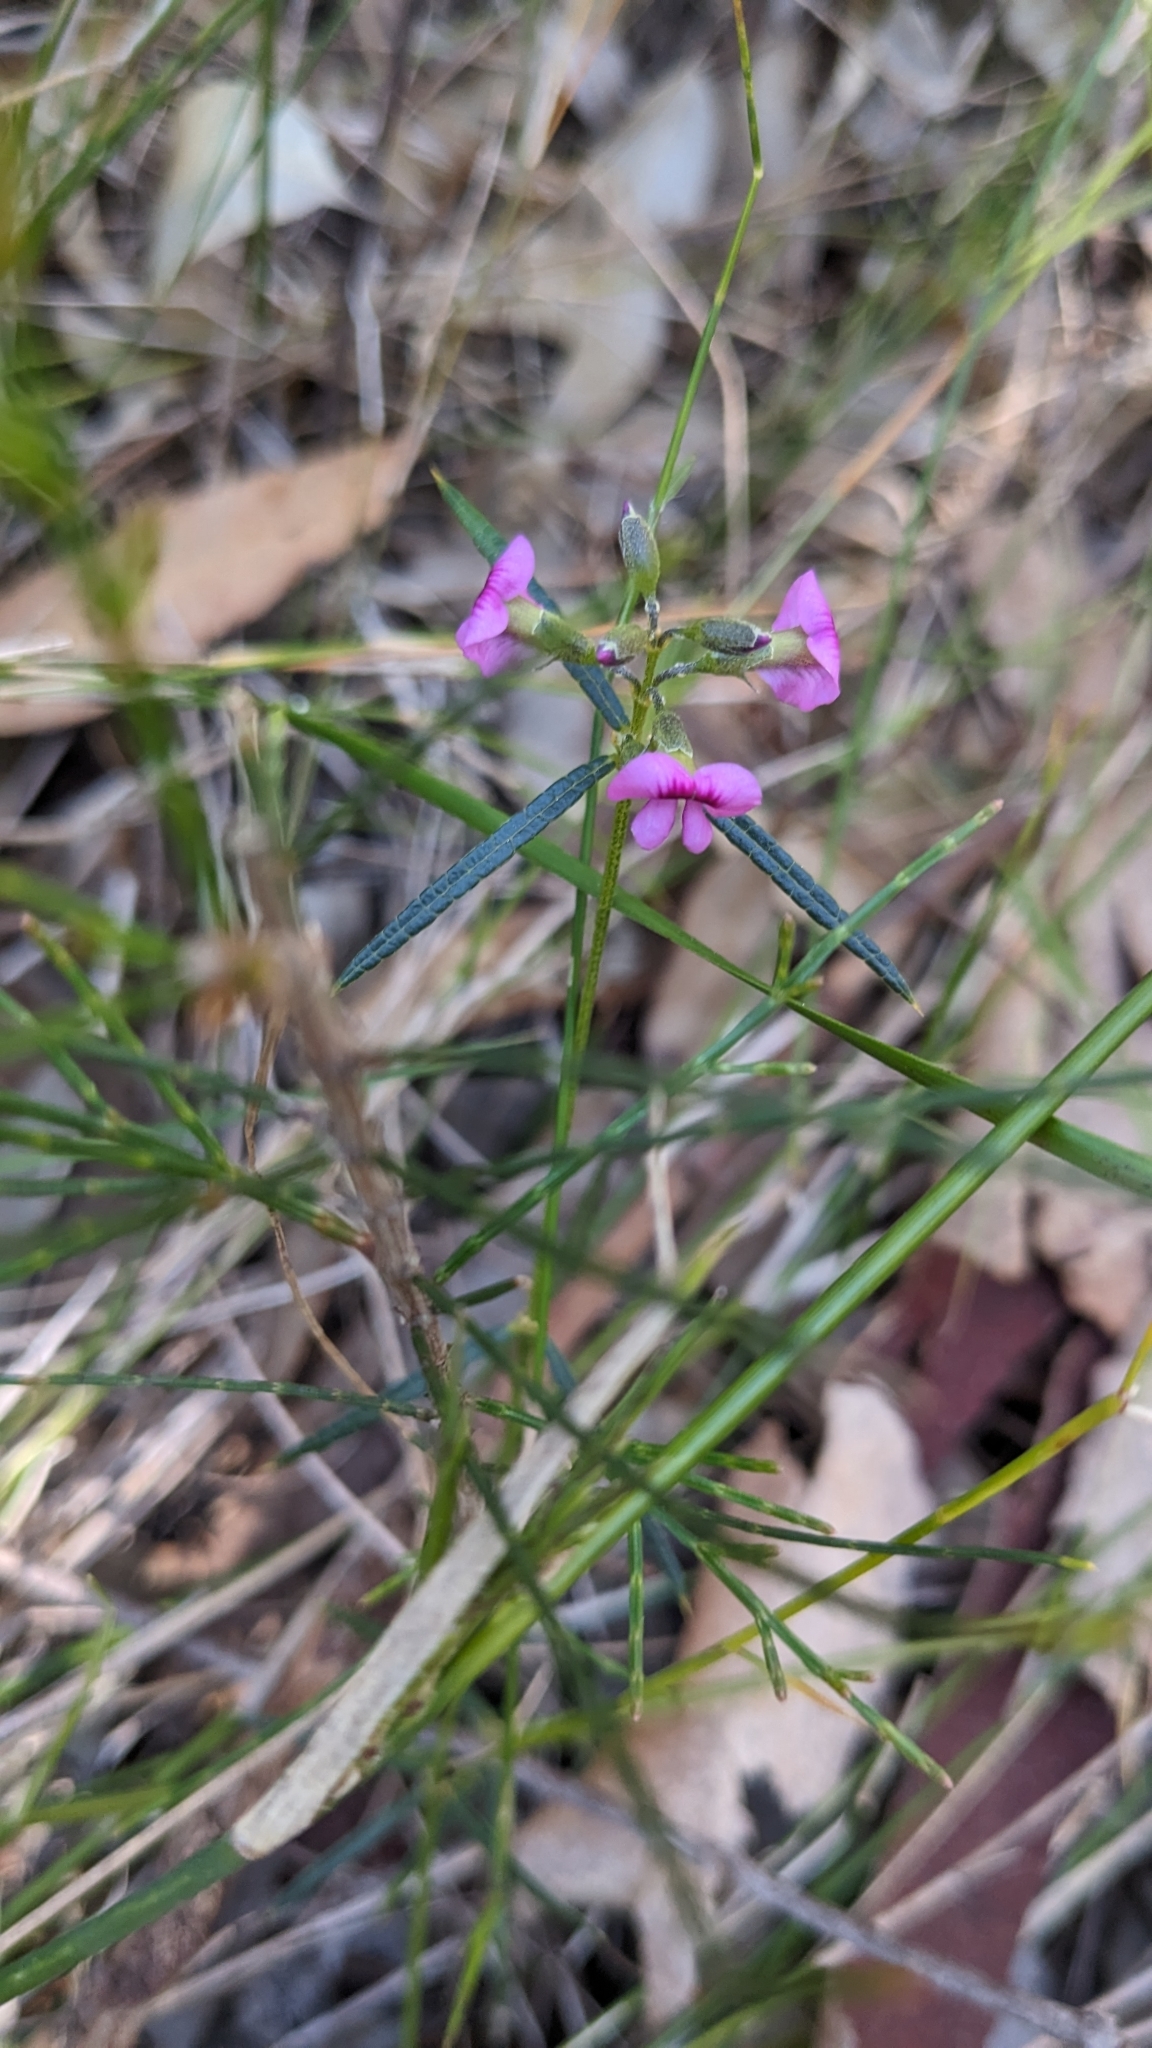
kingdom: Plantae
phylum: Tracheophyta
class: Magnoliopsida
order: Fabales
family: Fabaceae
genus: Mirbelia
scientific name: Mirbelia rubiifolia
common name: Heathy mirbelia
